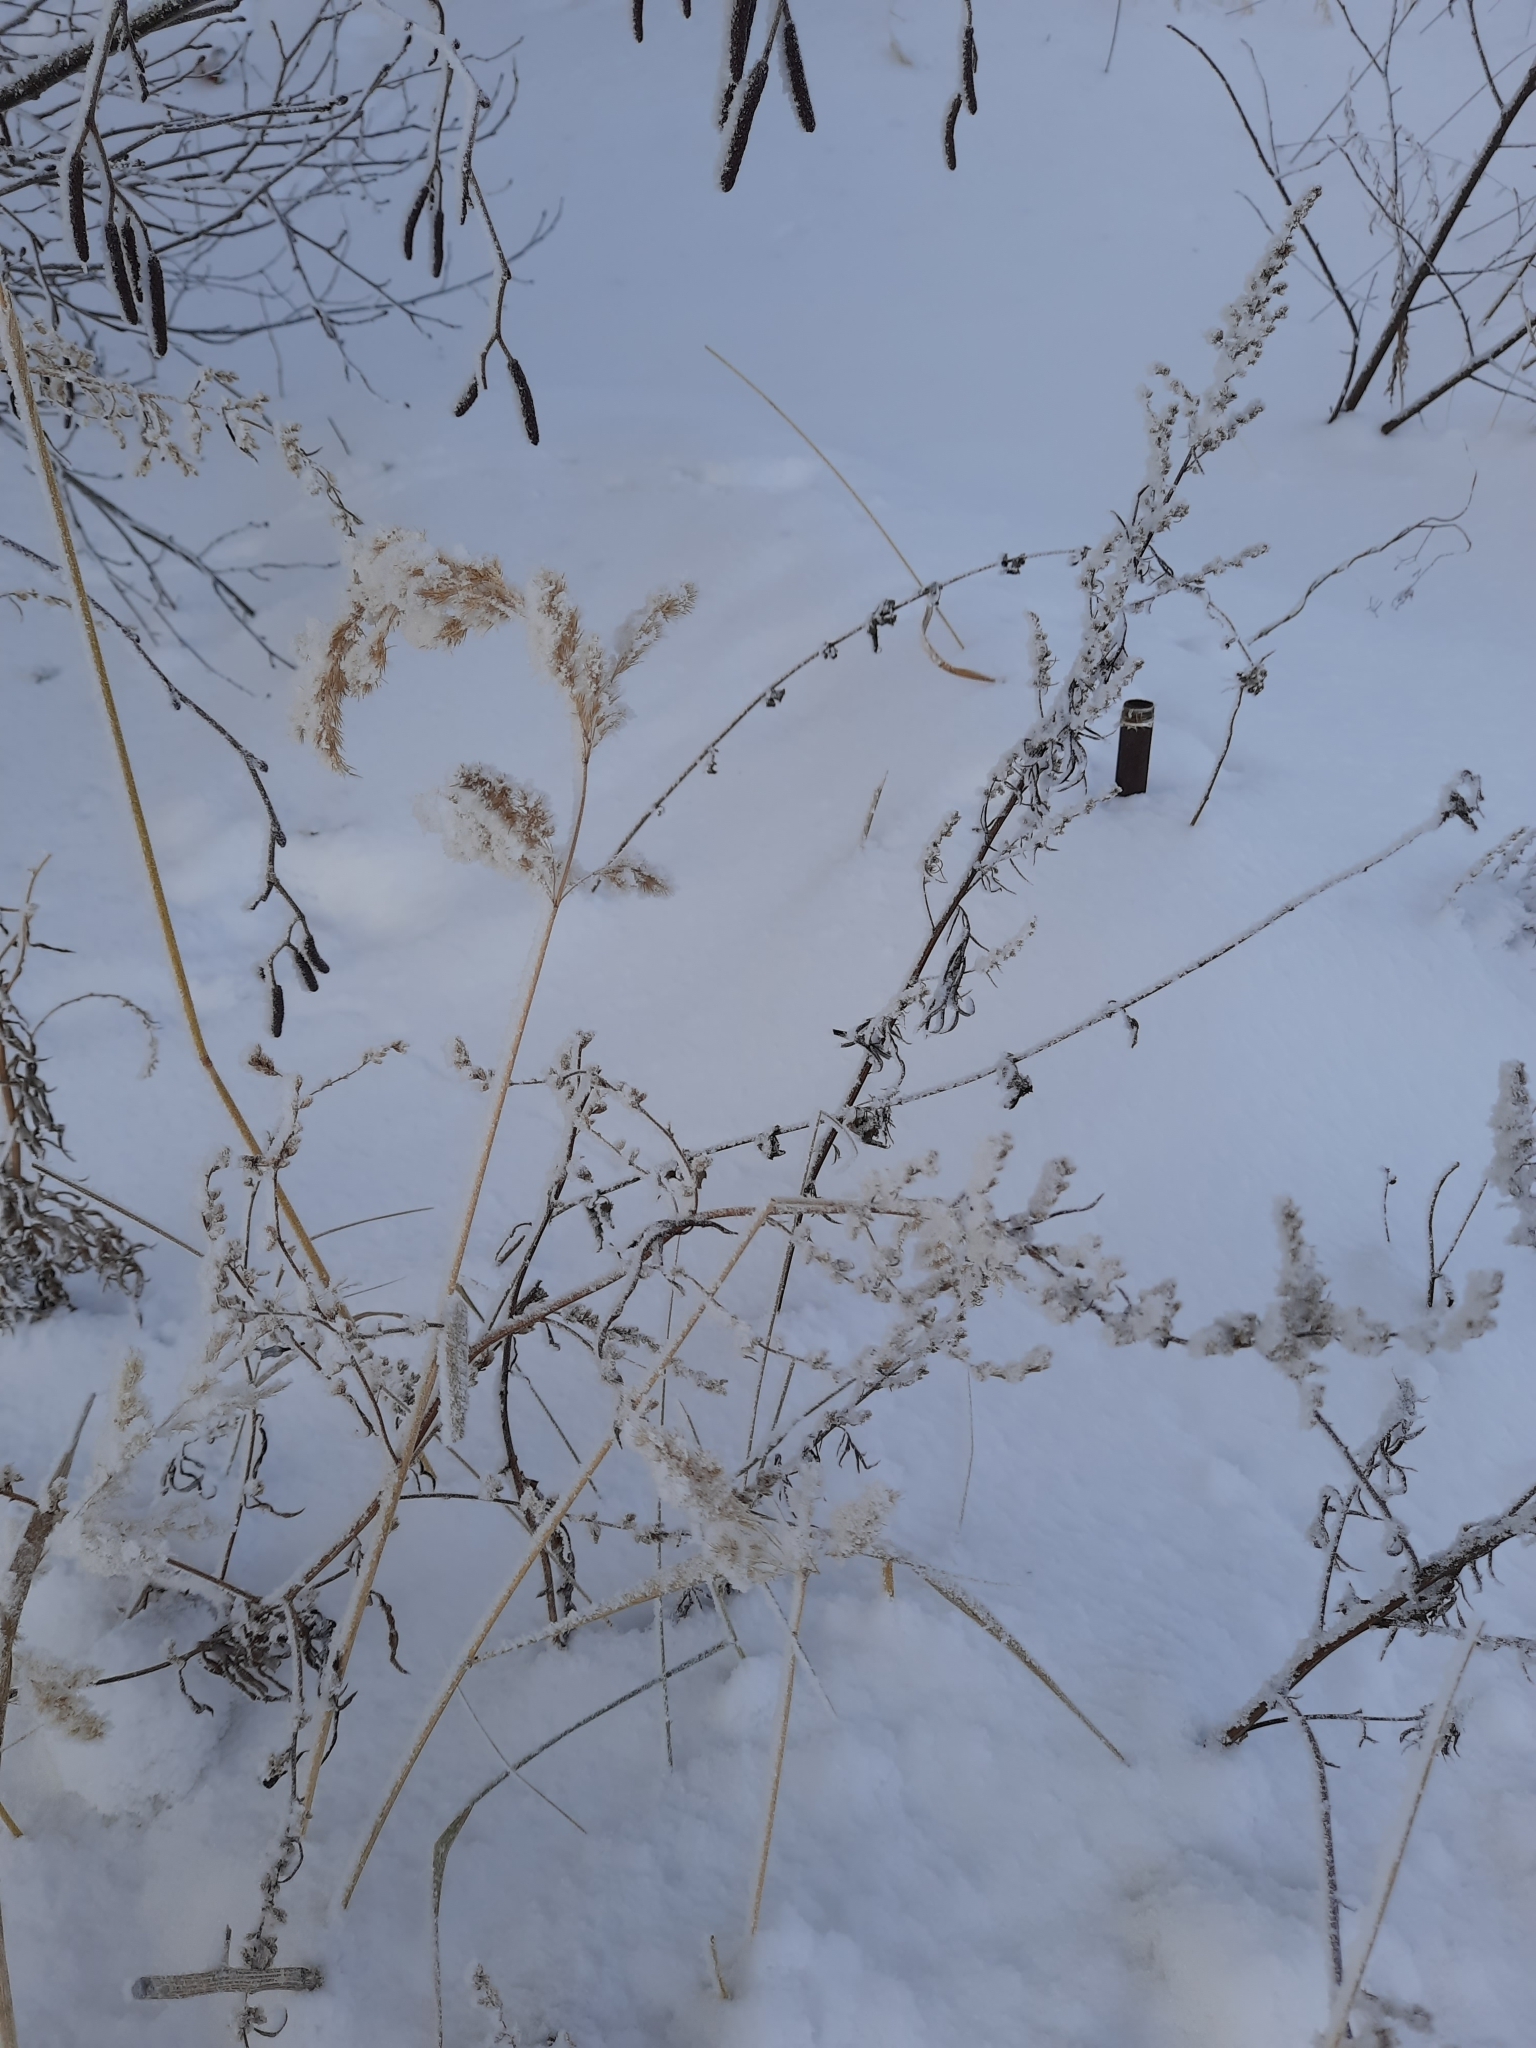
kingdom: Plantae
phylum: Tracheophyta
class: Liliopsida
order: Poales
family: Poaceae
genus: Calamagrostis
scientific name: Calamagrostis epigejos
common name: Wood small-reed
